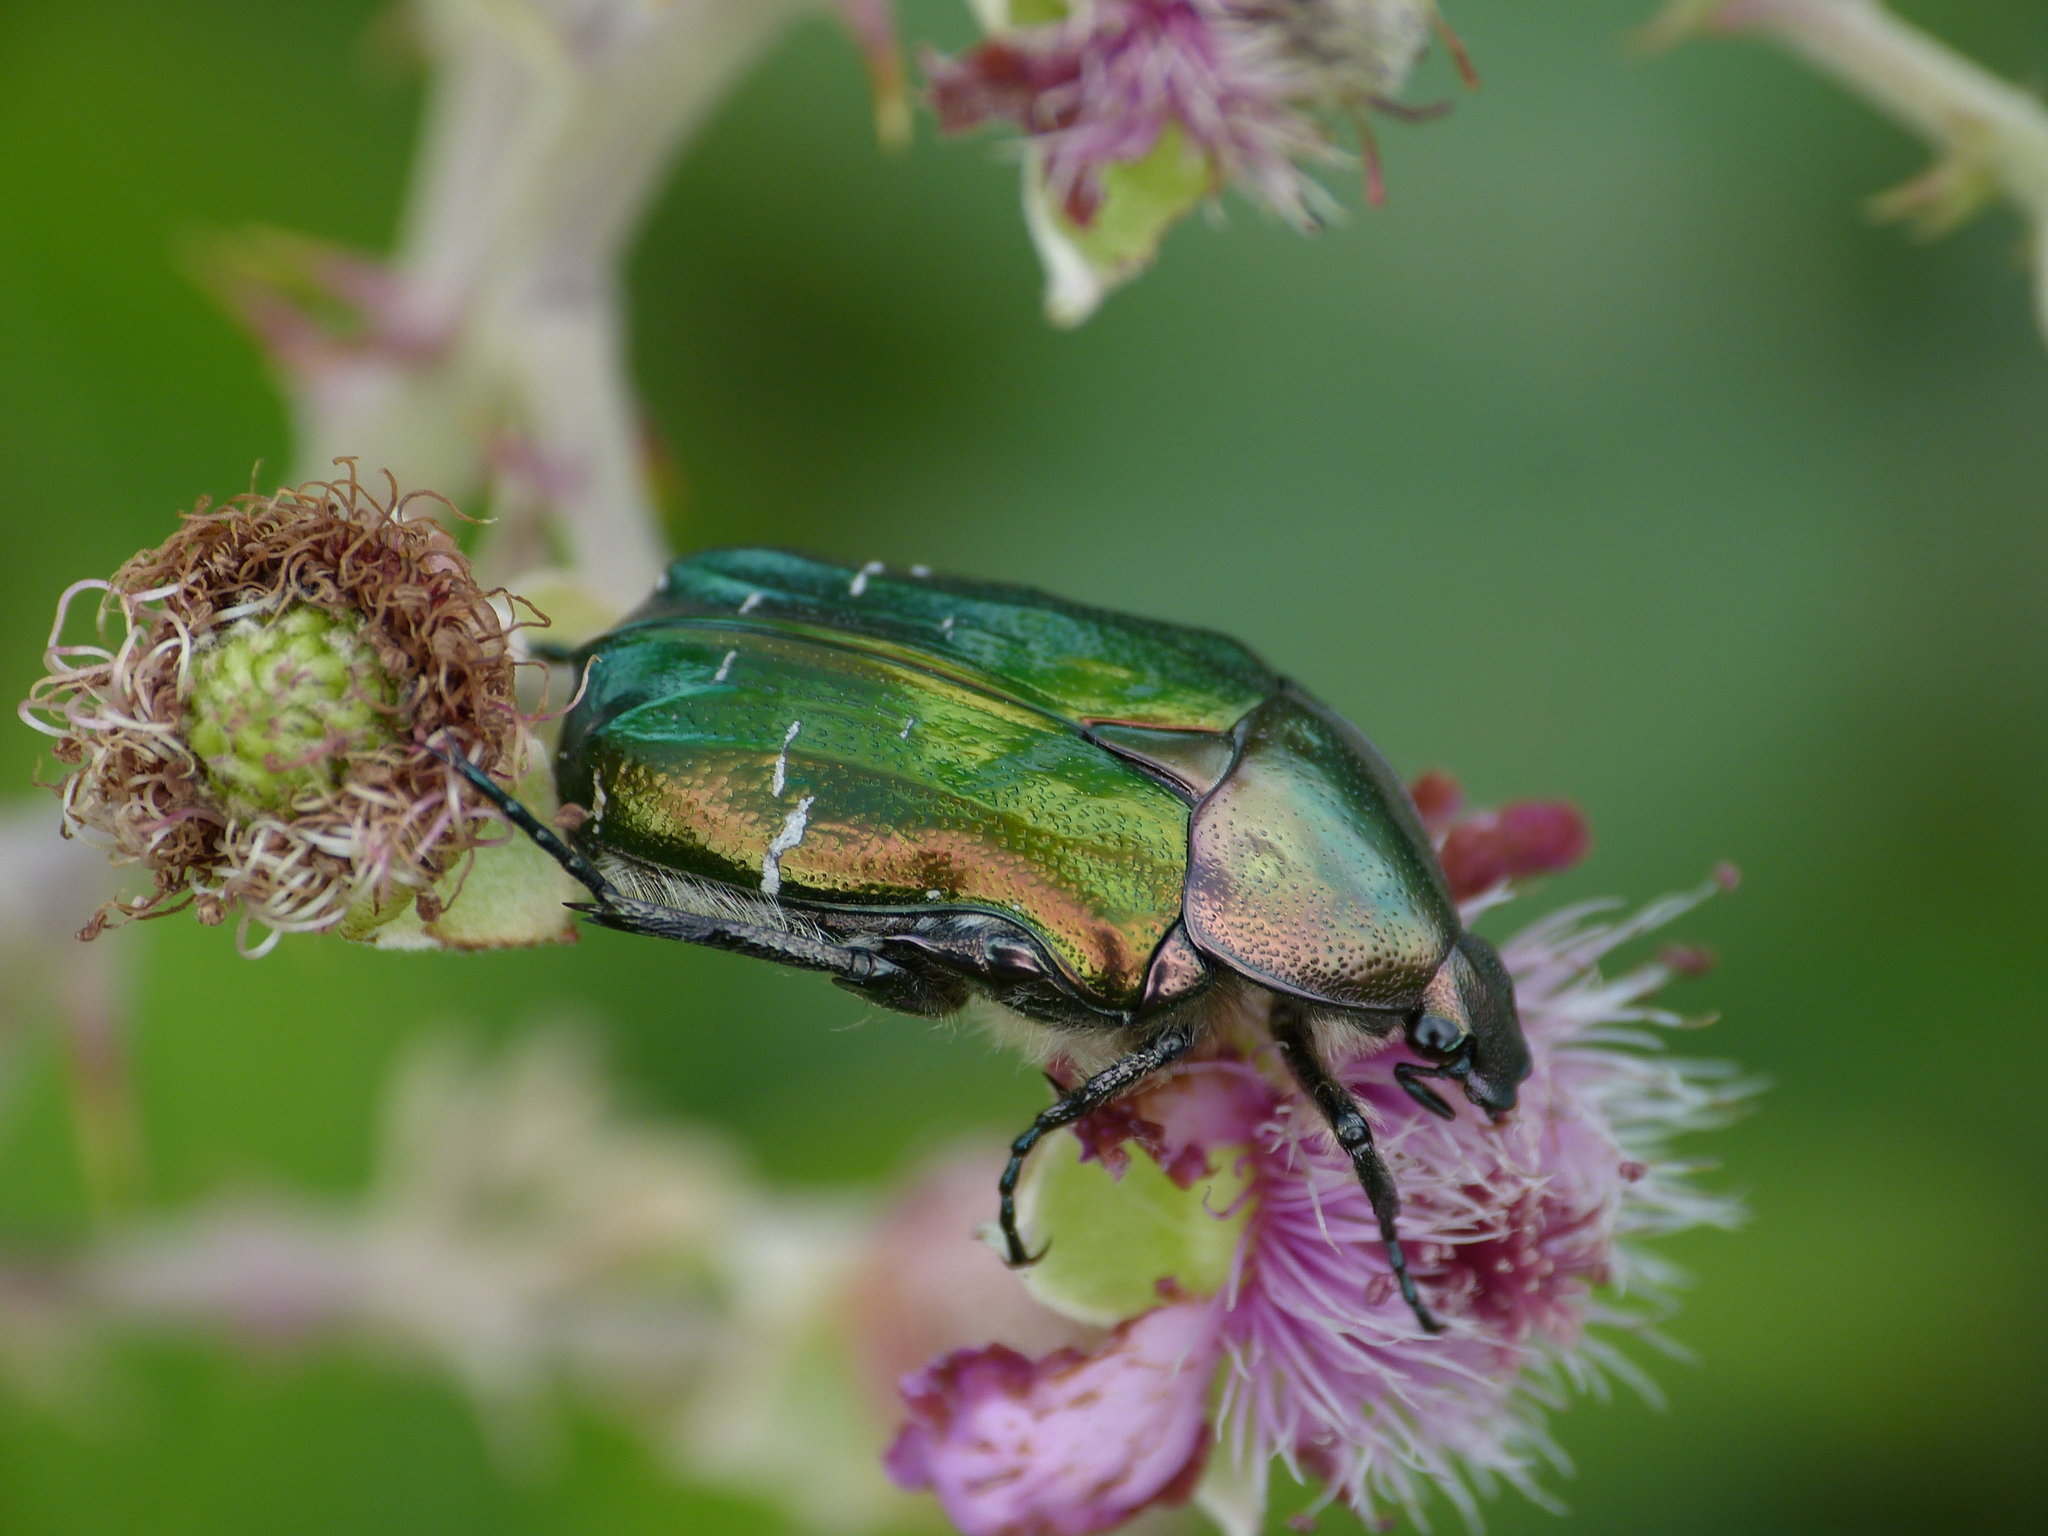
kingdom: Animalia
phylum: Arthropoda
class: Insecta
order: Coleoptera
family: Scarabaeidae
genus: Cetonia
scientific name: Cetonia aurata
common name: Rose chafer
